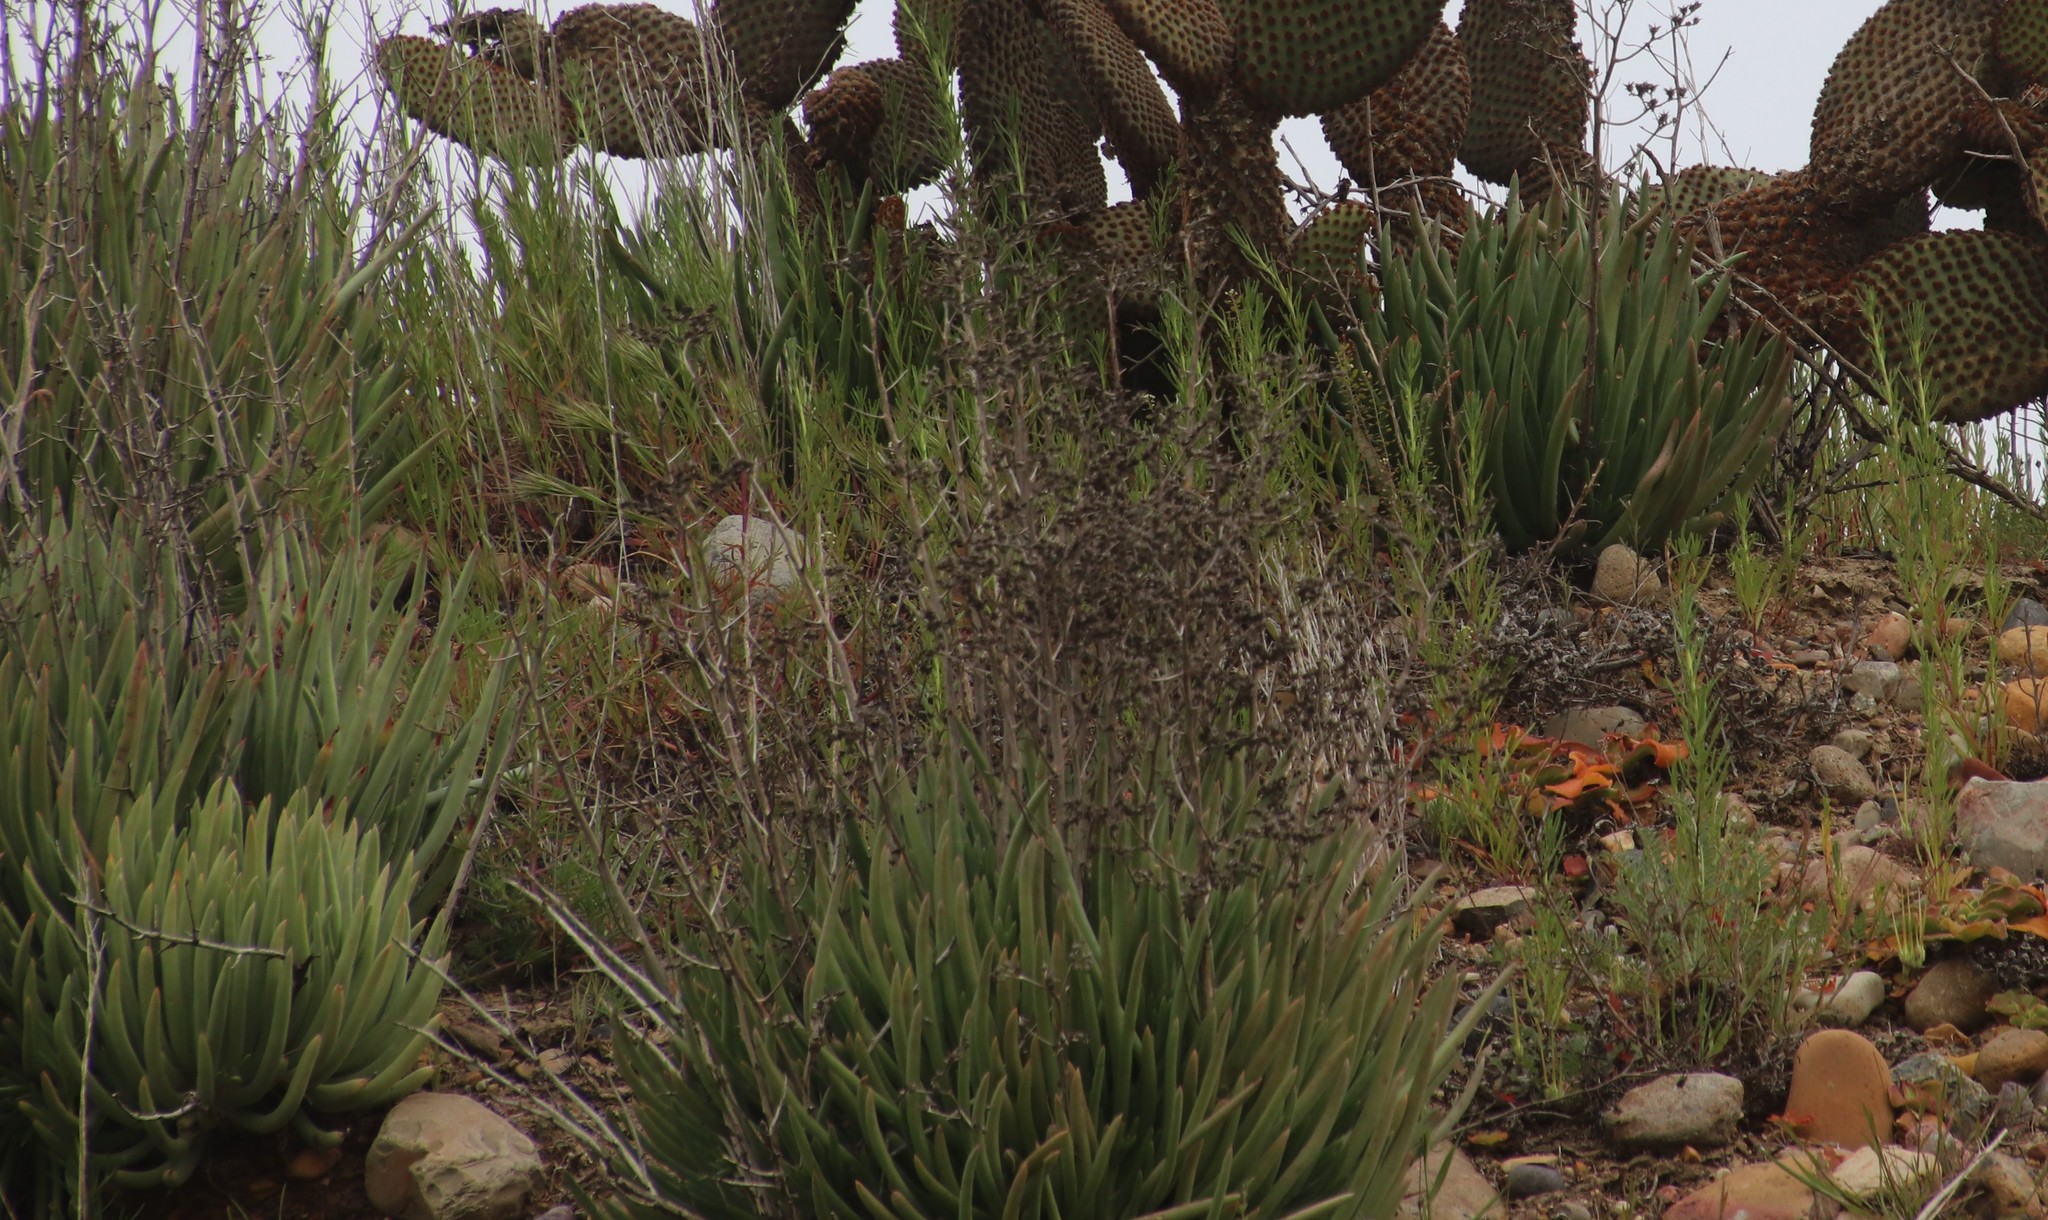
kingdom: Plantae
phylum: Tracheophyta
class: Magnoliopsida
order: Saxifragales
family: Crassulaceae
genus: Dudleya
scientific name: Dudleya edulis
